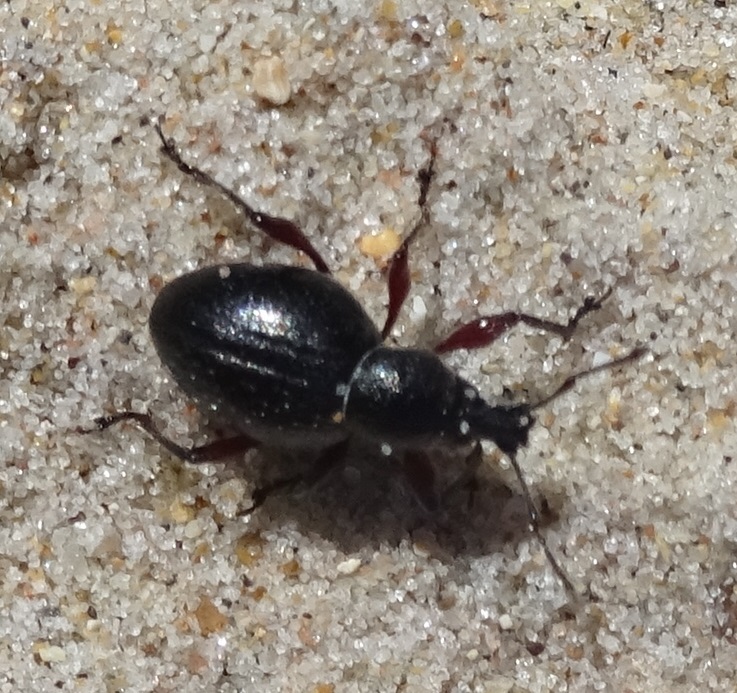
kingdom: Animalia
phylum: Arthropoda
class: Insecta
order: Coleoptera
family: Curculionidae
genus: Otiorhynchus
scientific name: Otiorhynchus atroapterus
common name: Black marram weevil
